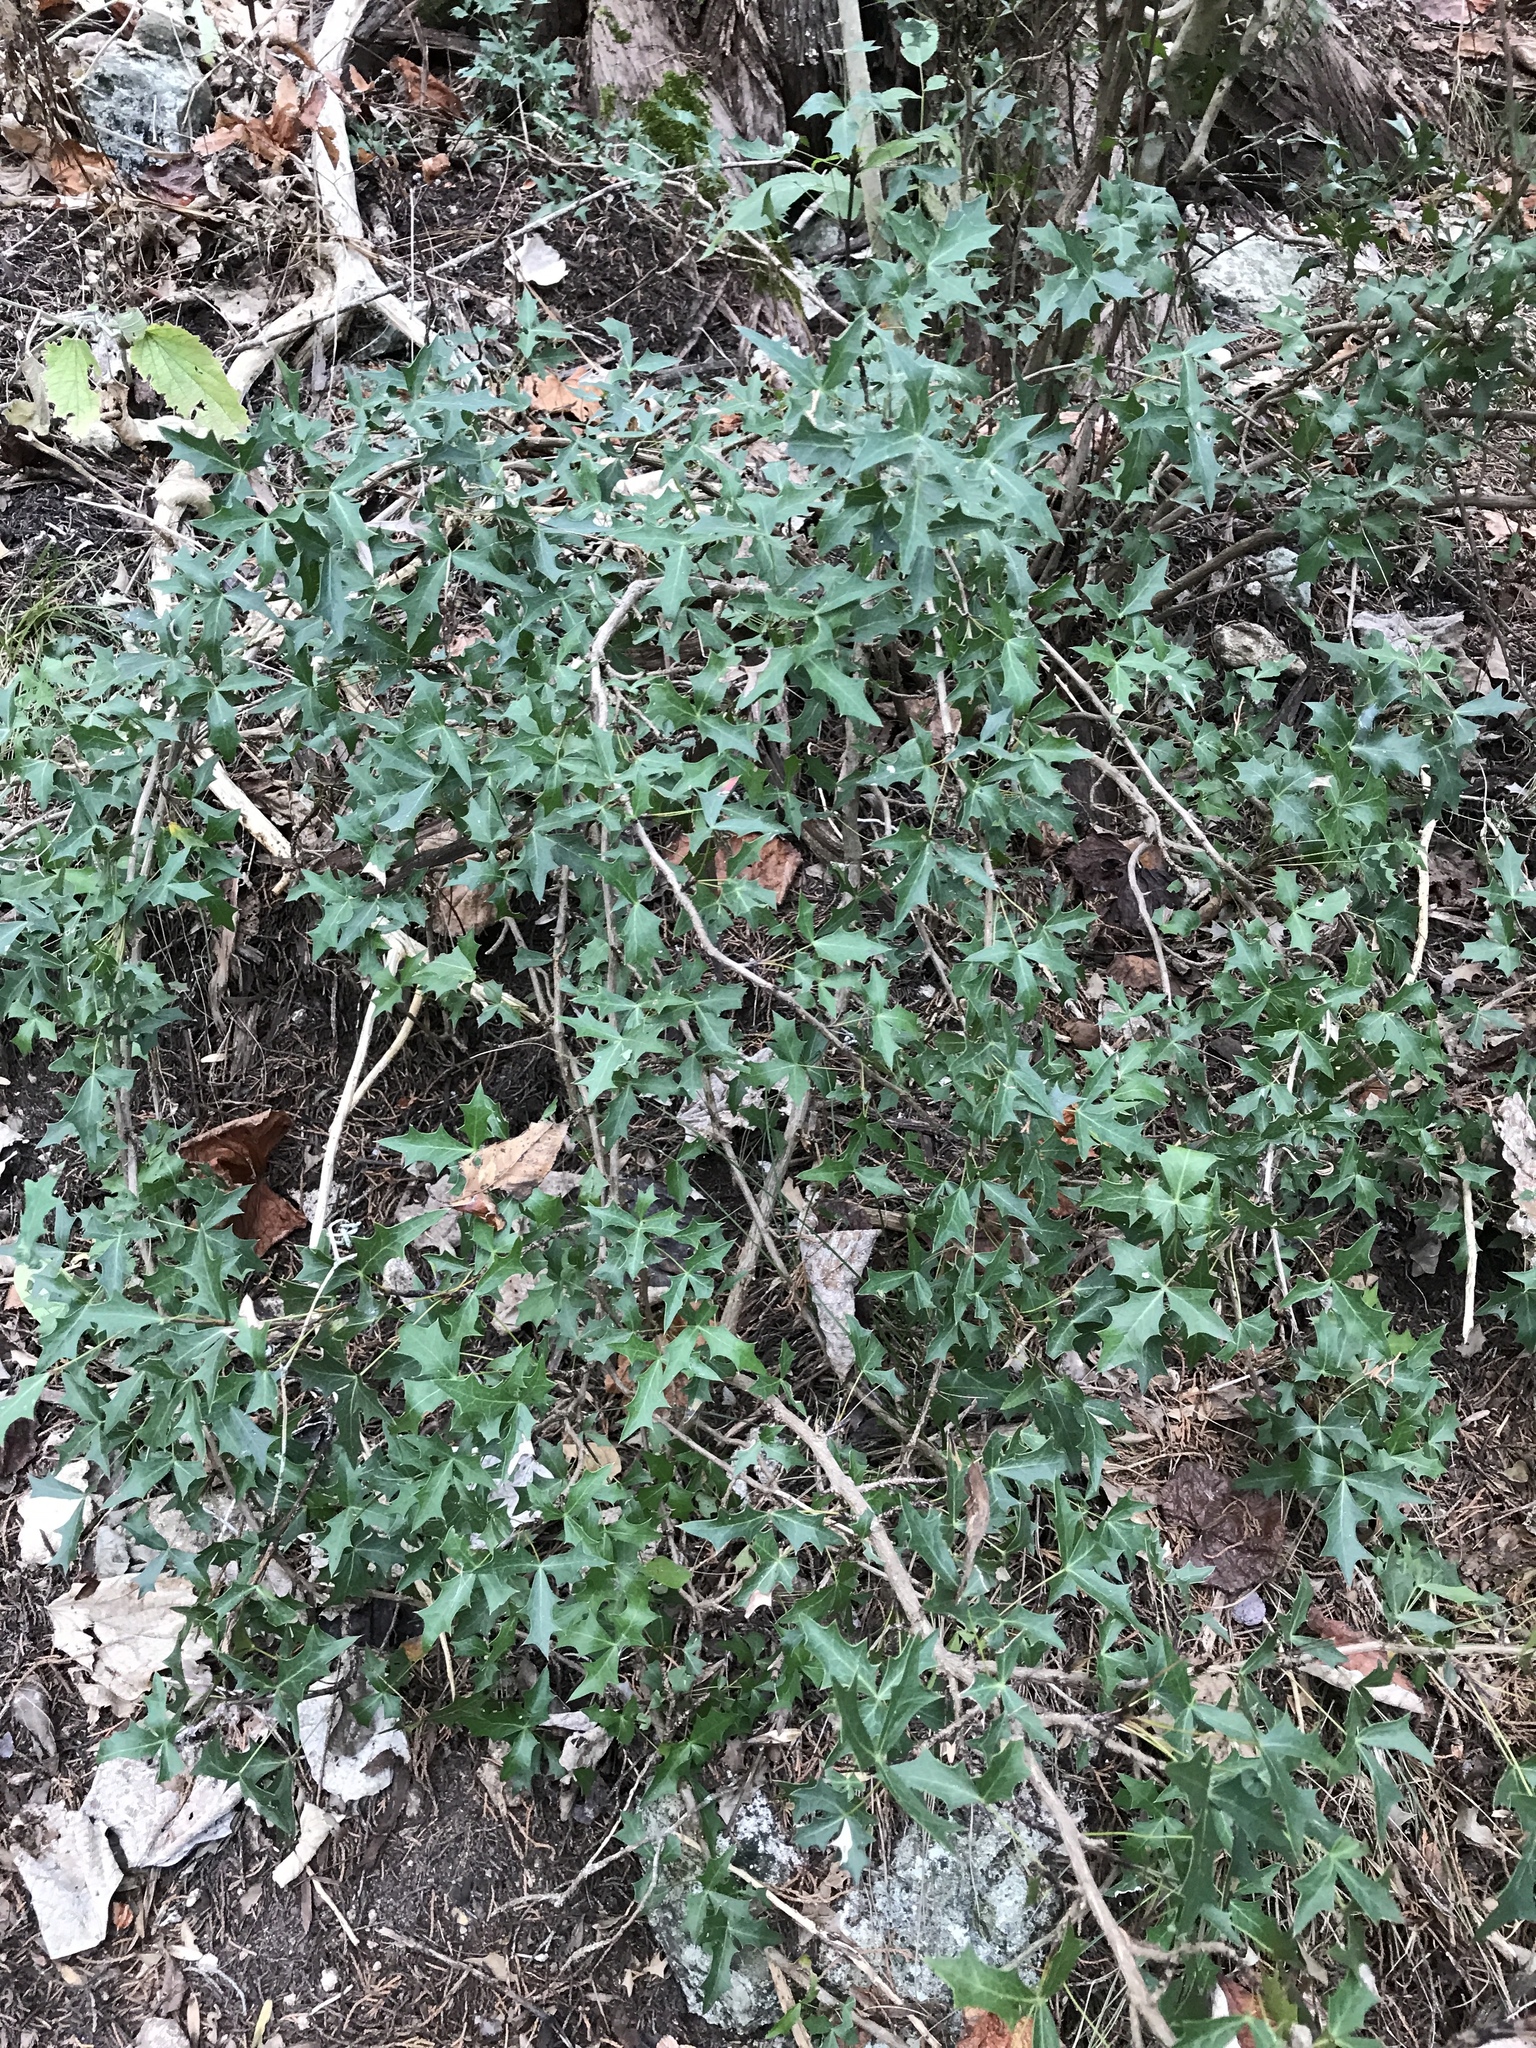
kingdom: Plantae
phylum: Tracheophyta
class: Magnoliopsida
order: Ranunculales
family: Berberidaceae
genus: Alloberberis
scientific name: Alloberberis trifoliolata
